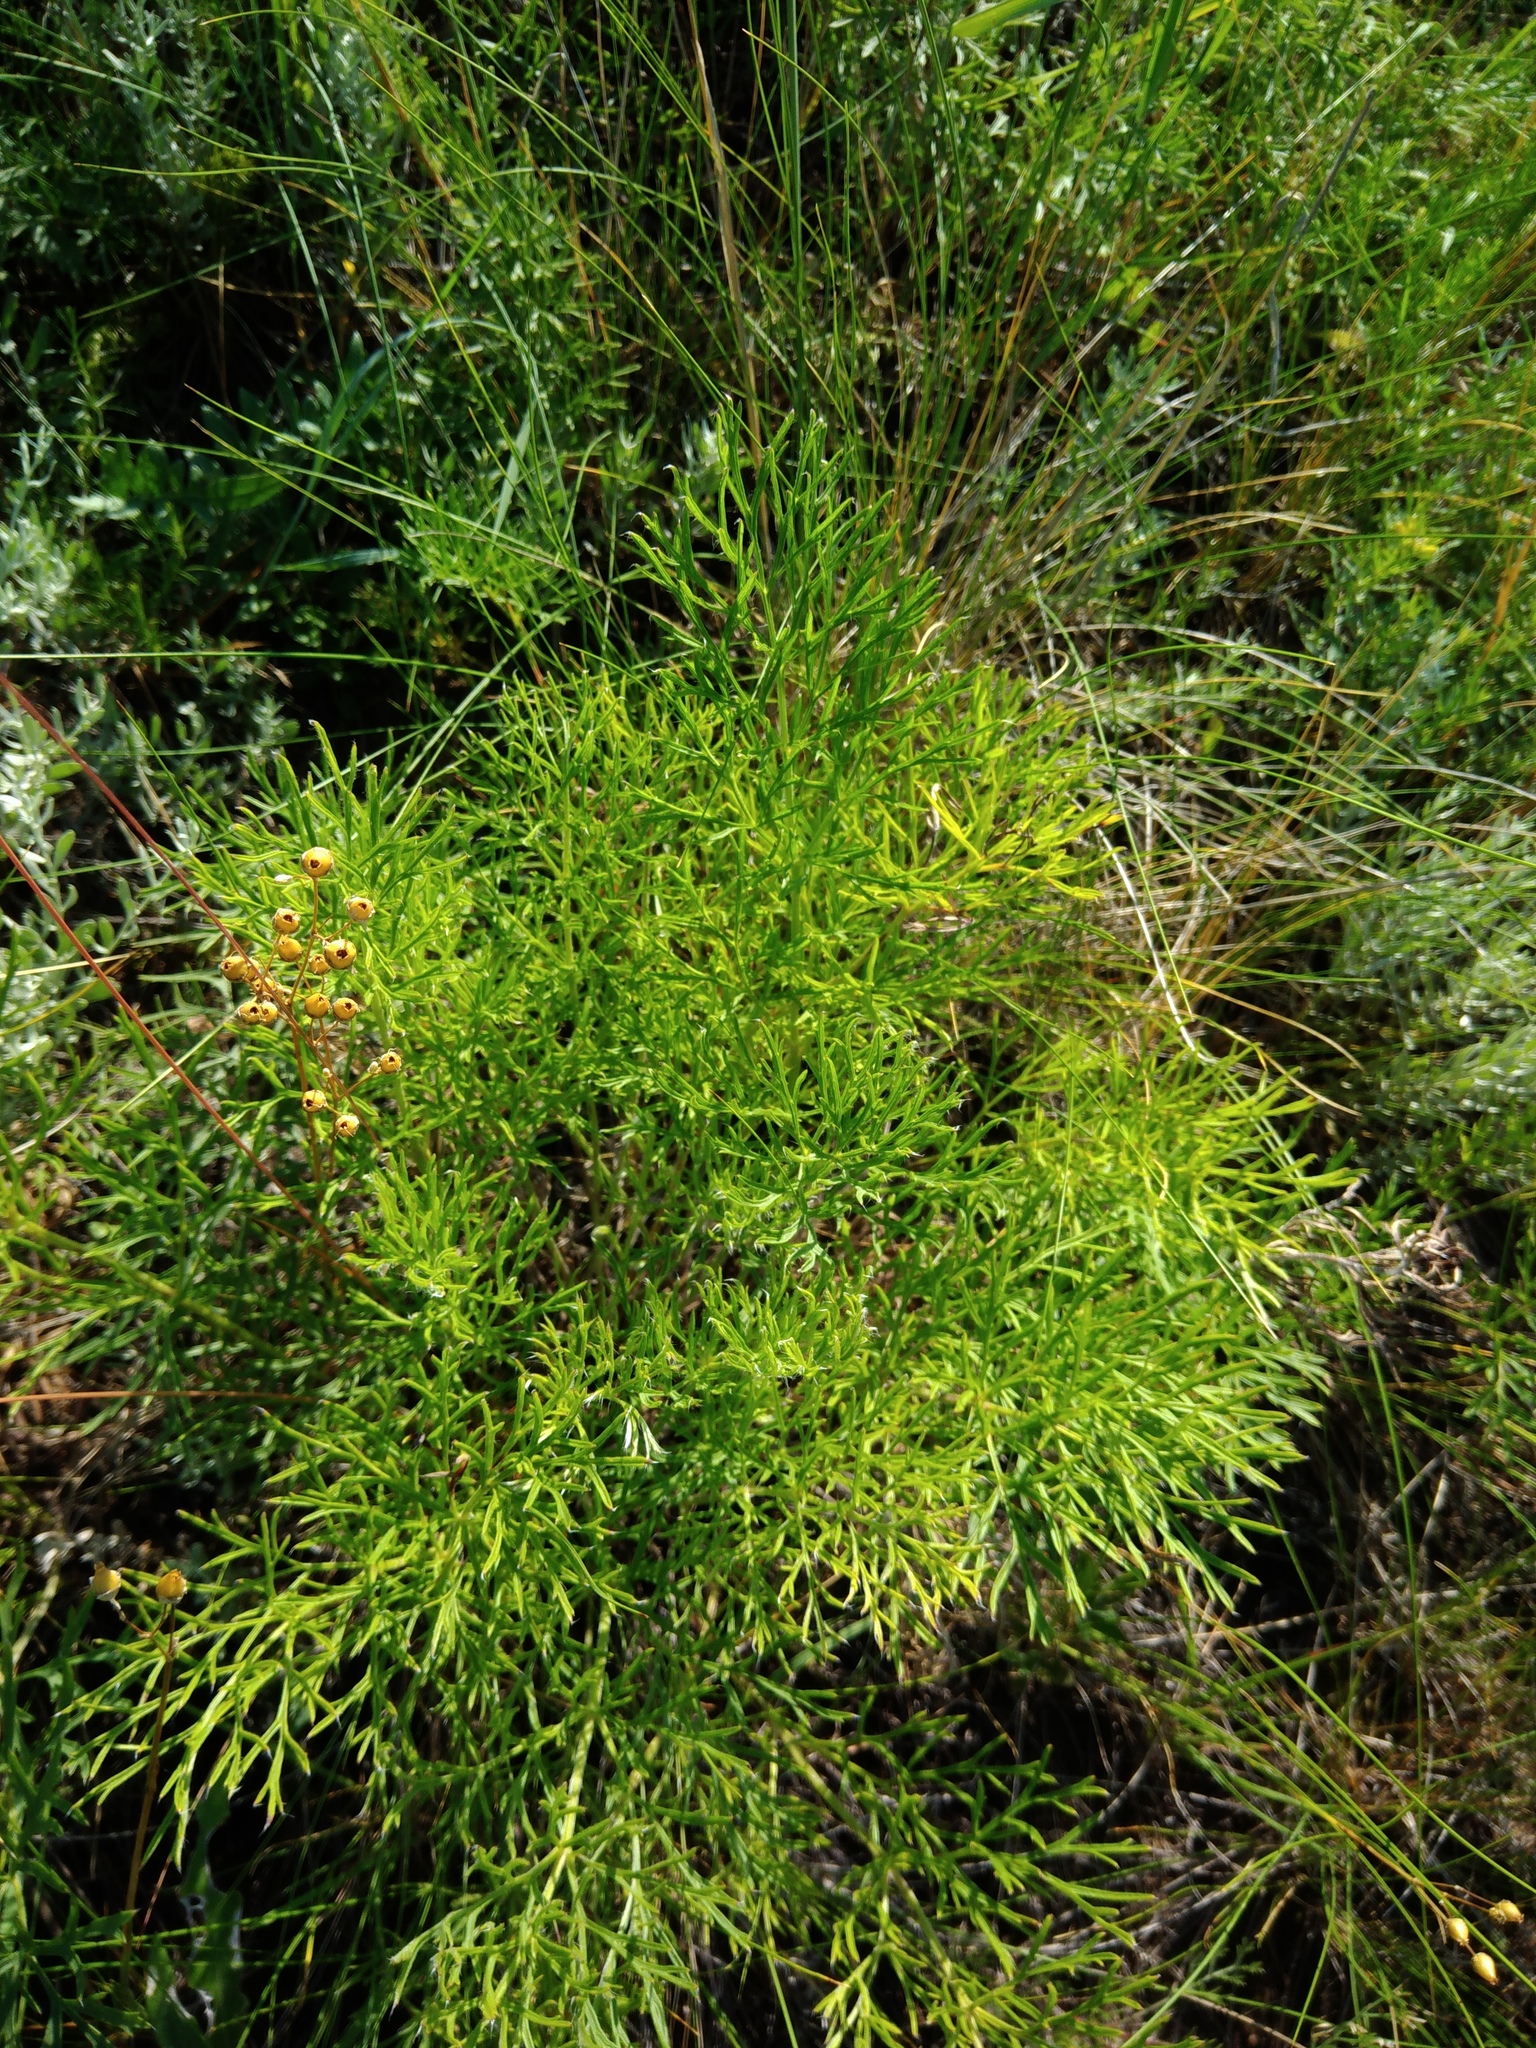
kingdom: Plantae
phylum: Tracheophyta
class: Magnoliopsida
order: Ranunculales
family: Ranunculaceae
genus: Adonis
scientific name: Adonis volgensis
